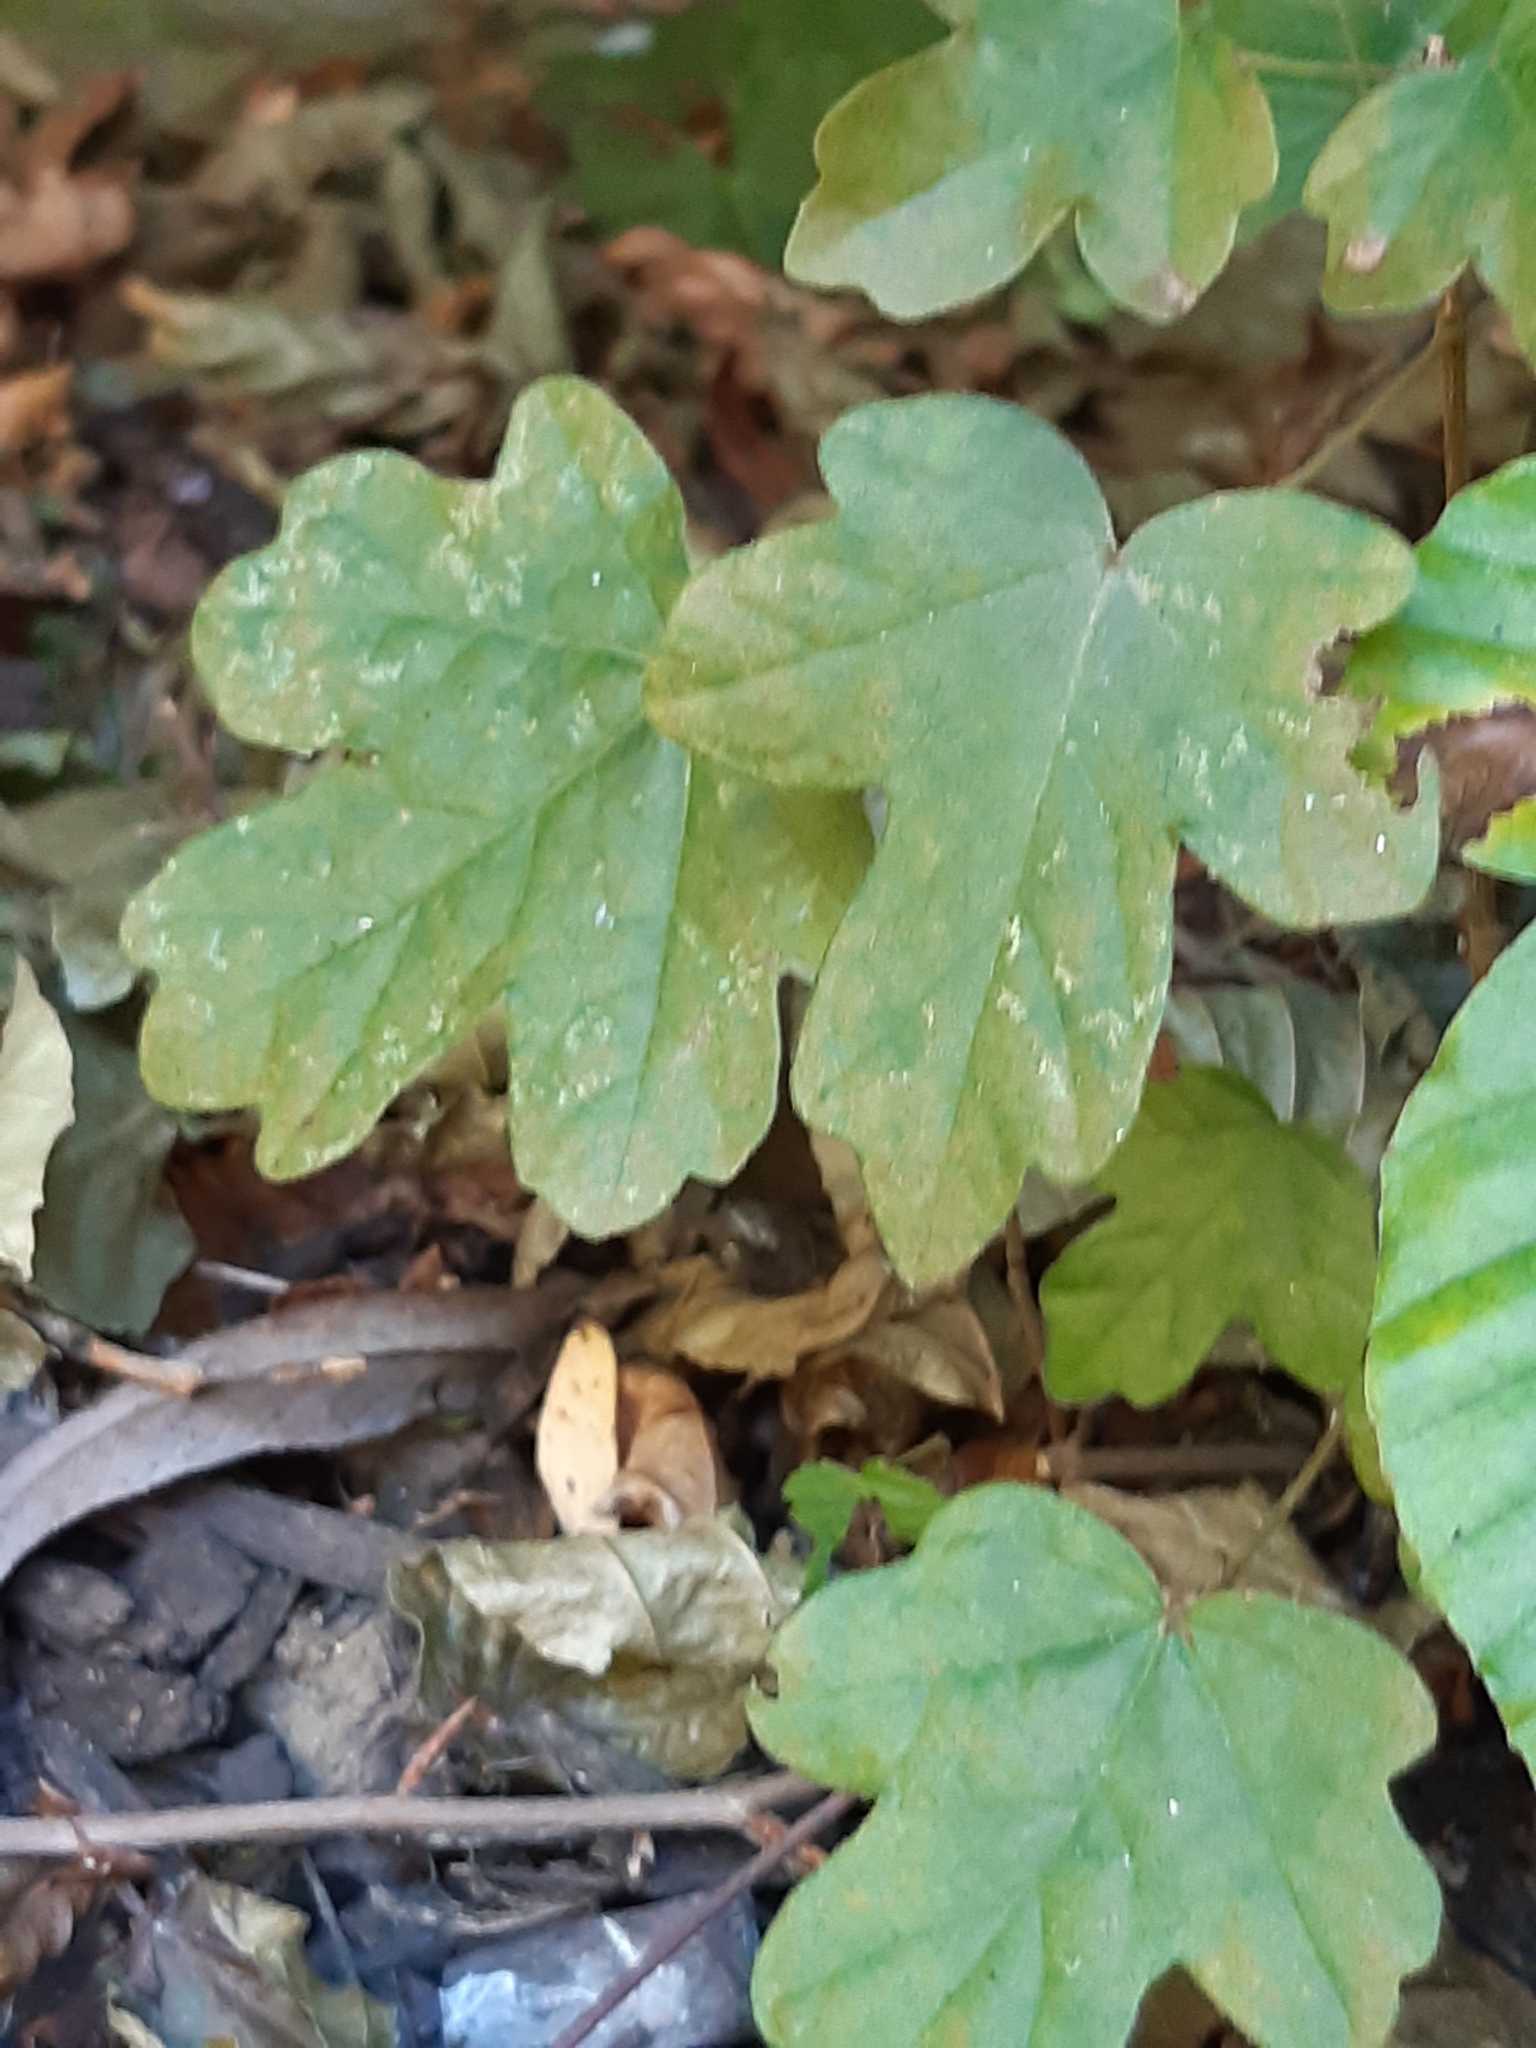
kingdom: Plantae
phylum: Tracheophyta
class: Magnoliopsida
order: Sapindales
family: Sapindaceae
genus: Acer
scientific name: Acer campestre
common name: Field maple
